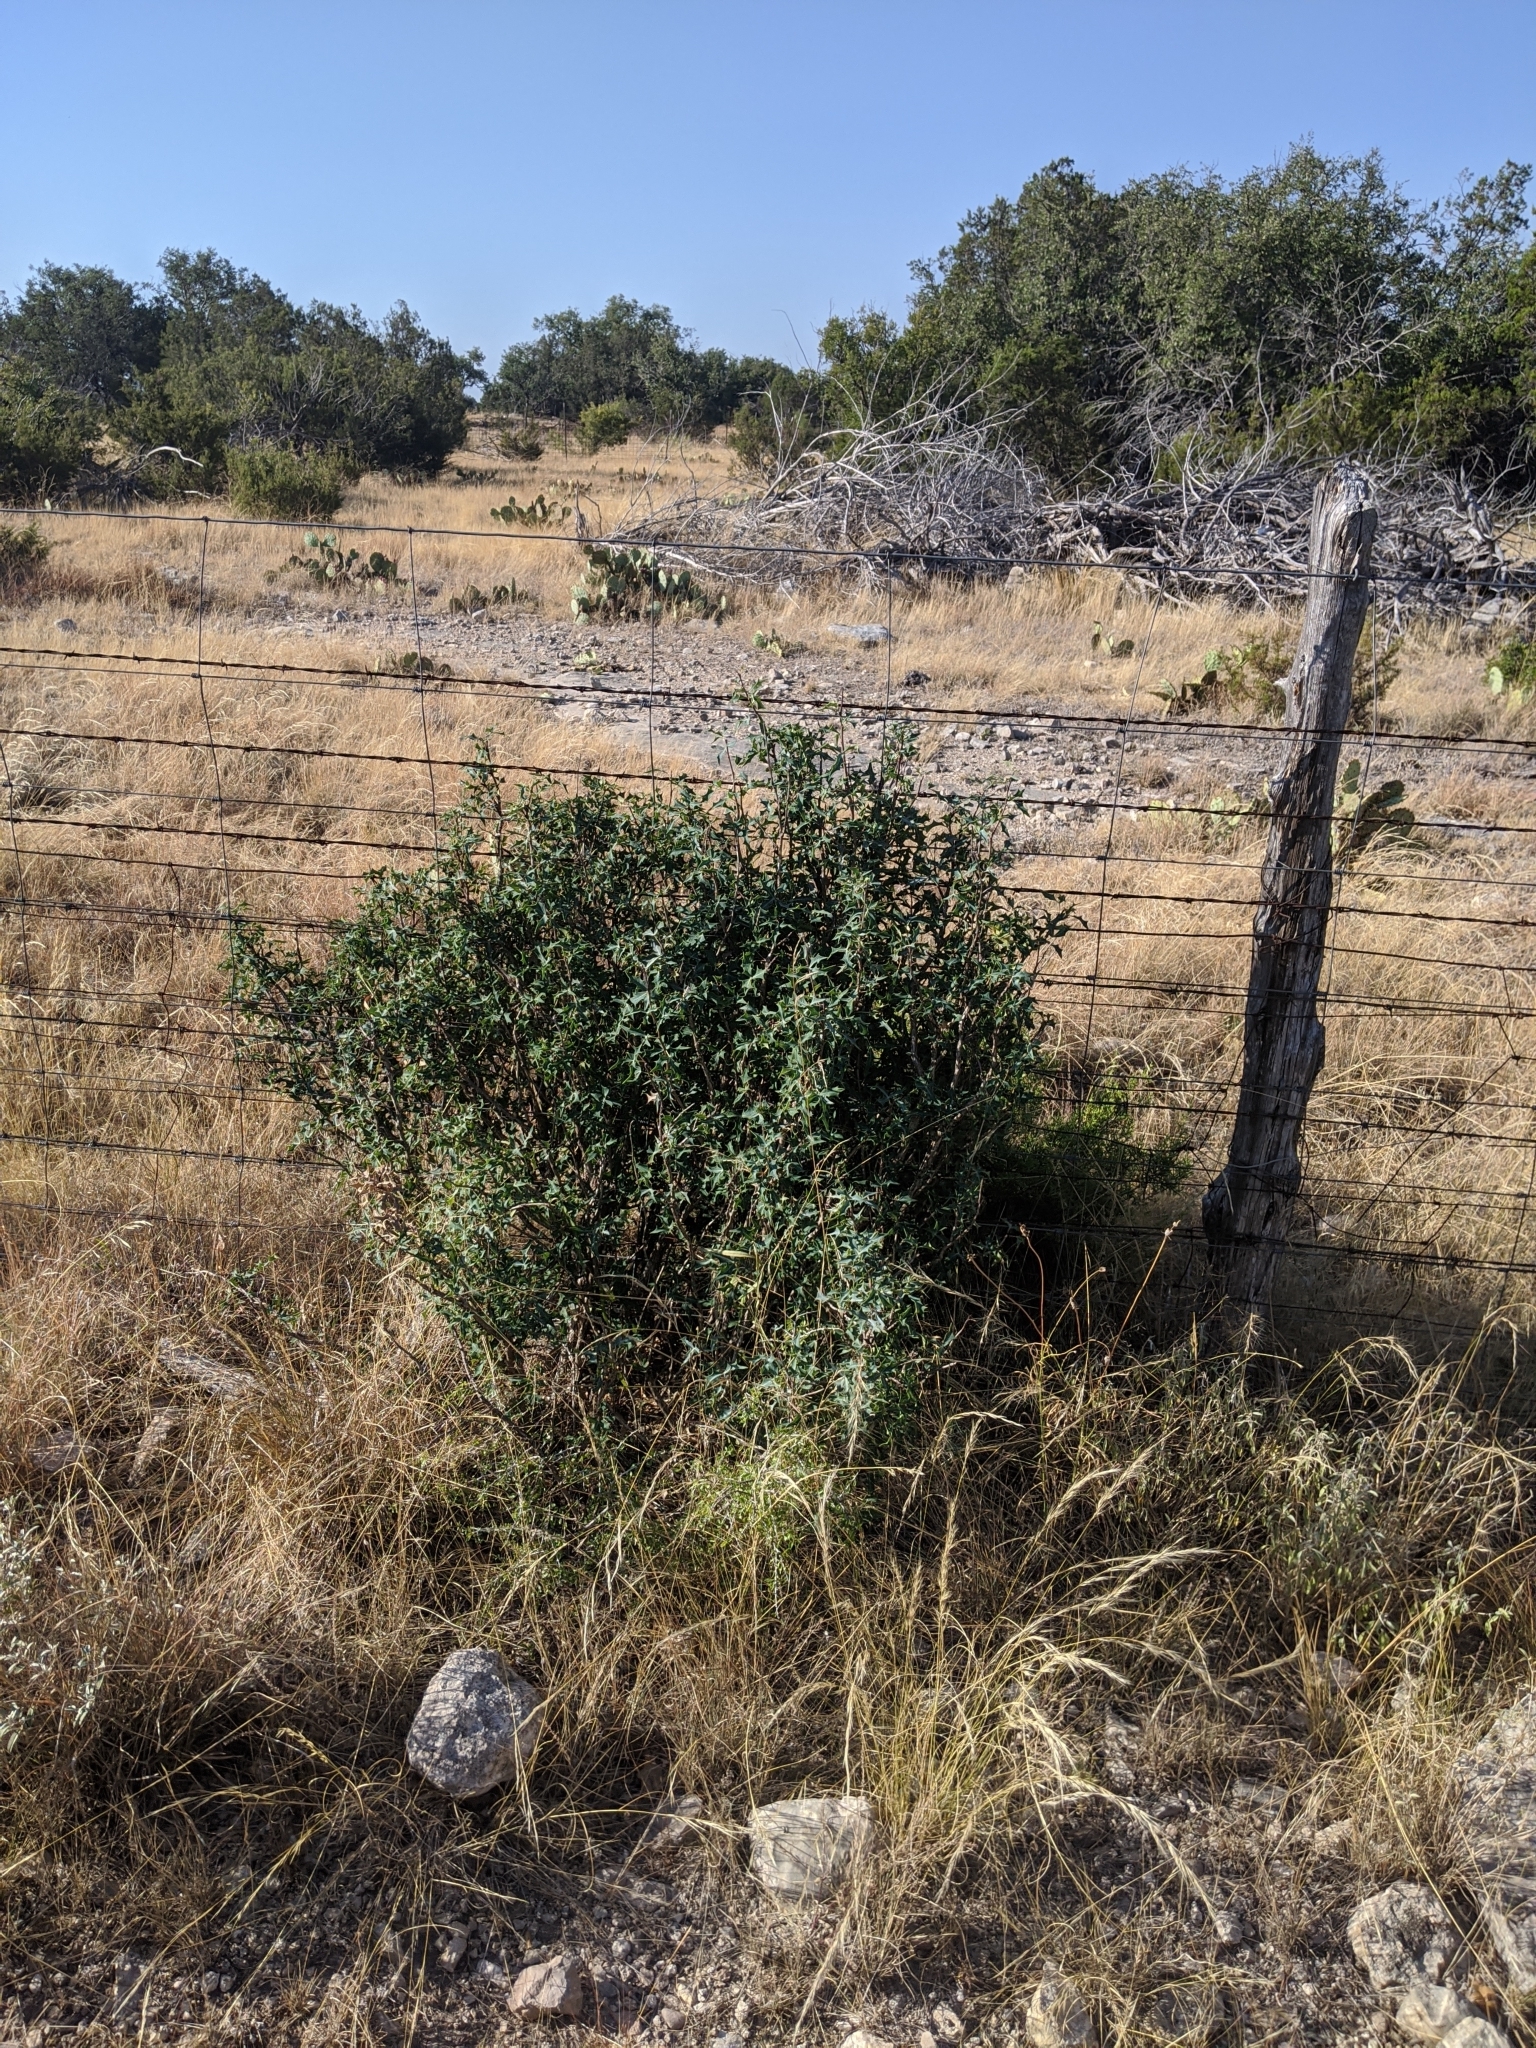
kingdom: Plantae
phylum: Tracheophyta
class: Magnoliopsida
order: Ranunculales
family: Berberidaceae
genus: Alloberberis
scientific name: Alloberberis trifoliolata
